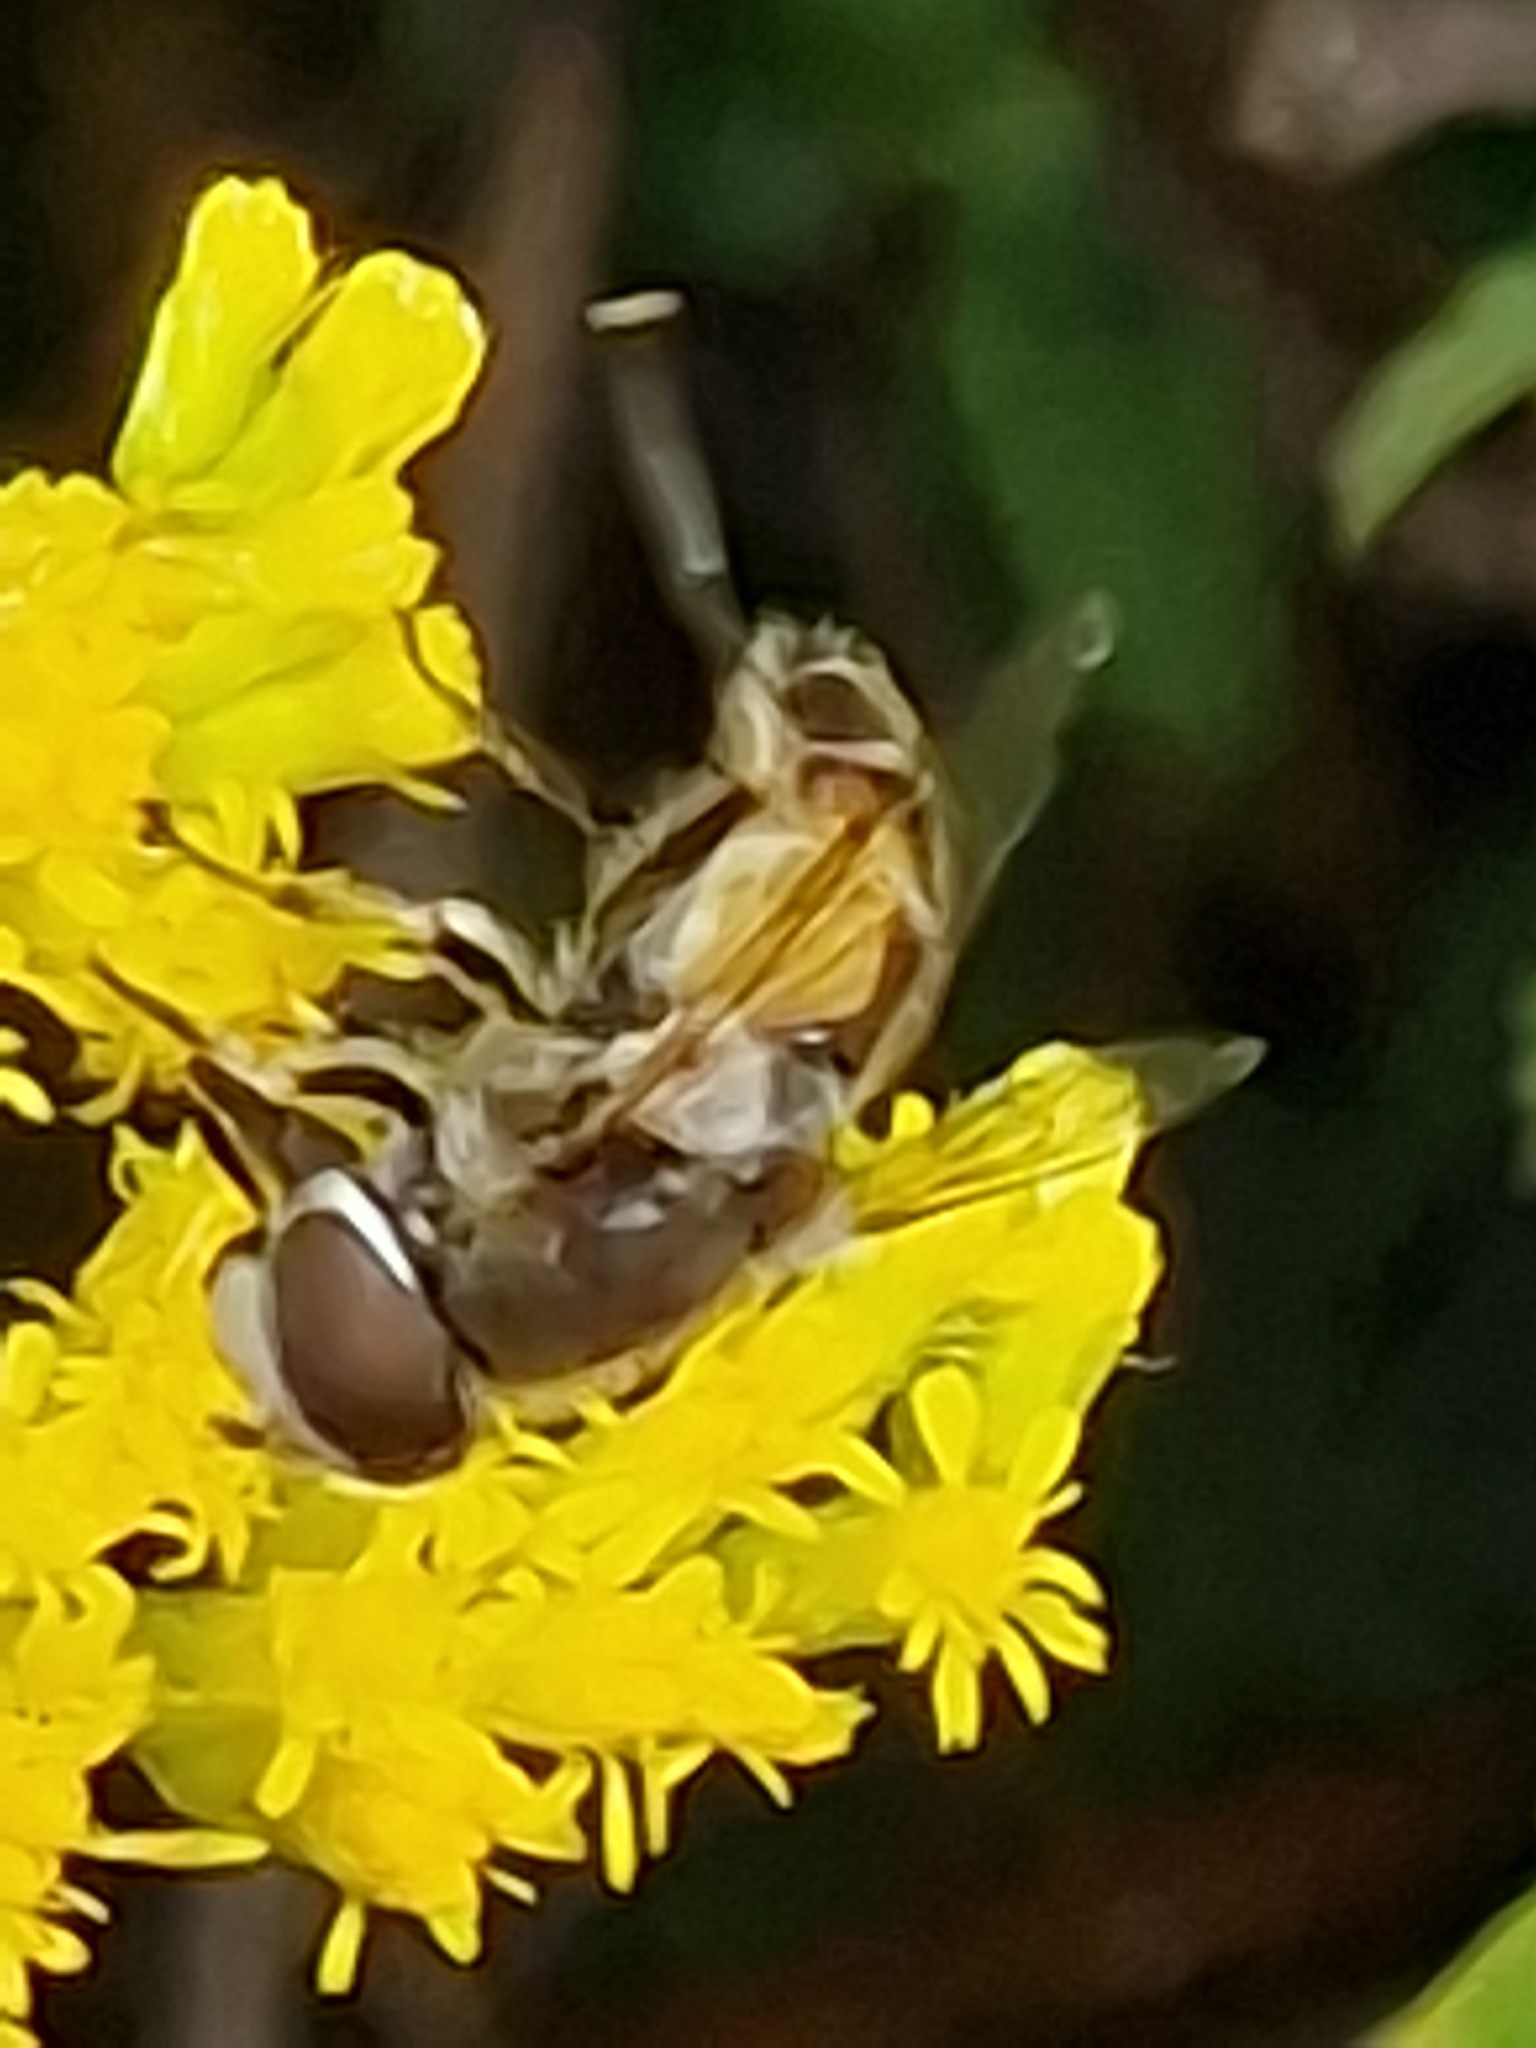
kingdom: Animalia
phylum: Arthropoda
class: Insecta
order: Diptera
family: Syrphidae
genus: Eristalis
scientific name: Eristalis arbustorum
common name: Hover fly
